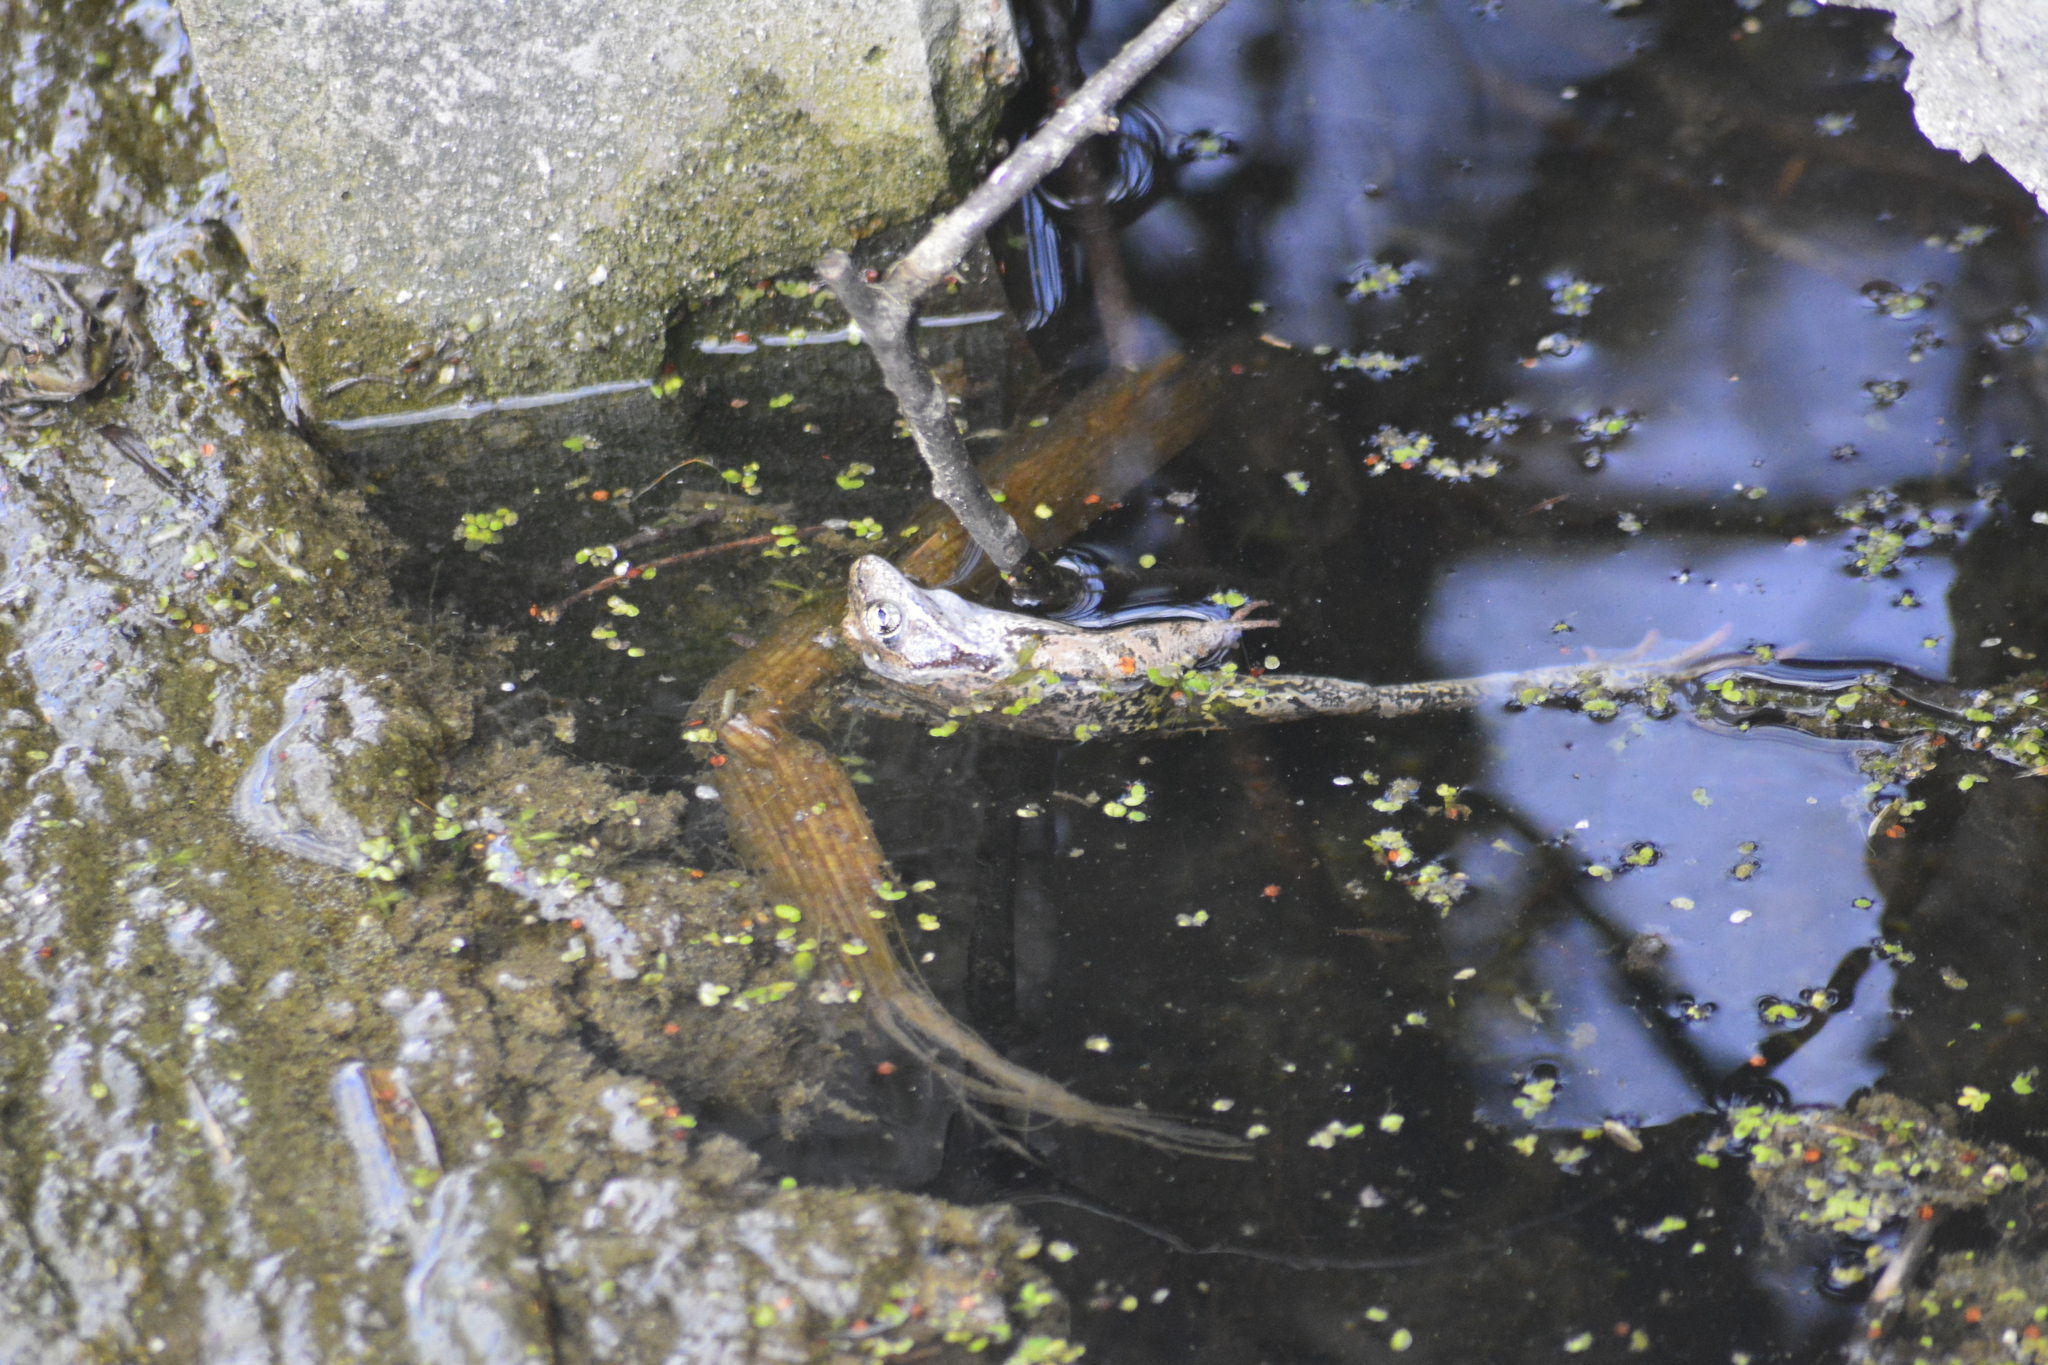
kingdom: Animalia
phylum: Chordata
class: Amphibia
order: Anura
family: Ranidae
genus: Rana
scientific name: Rana temporaria
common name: Common frog
